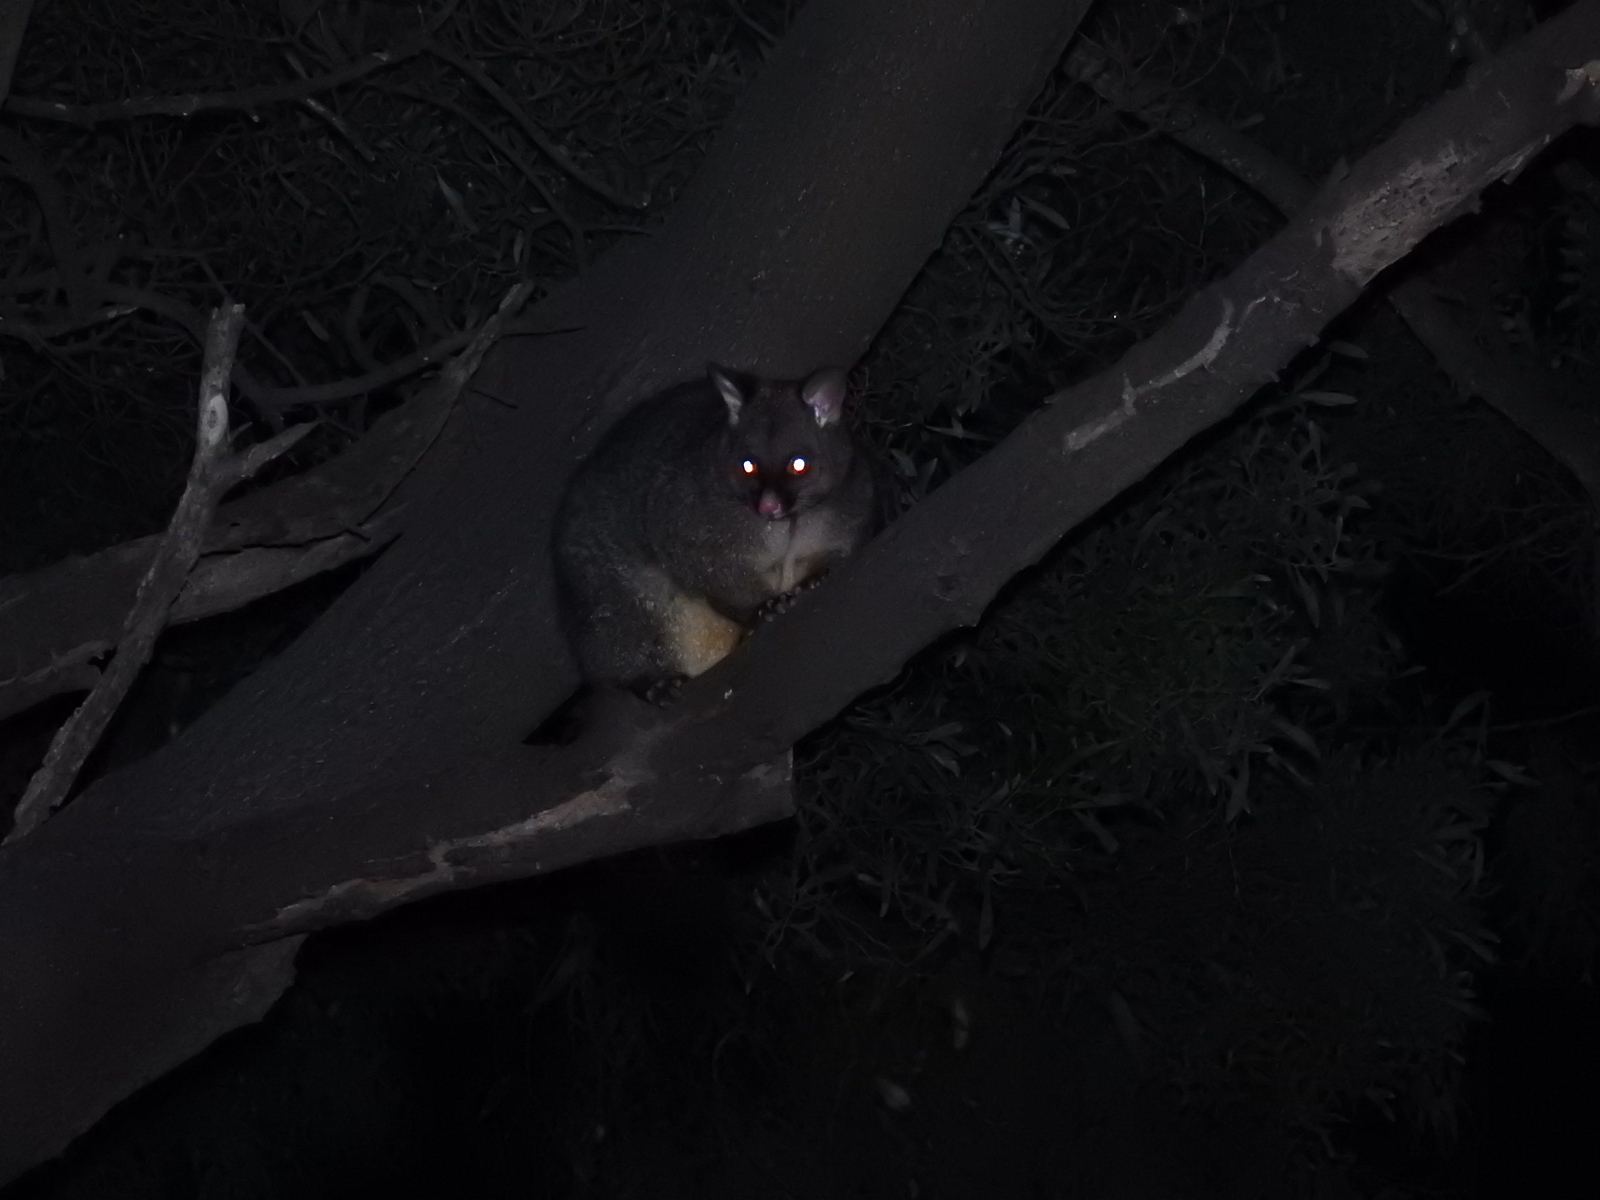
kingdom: Animalia
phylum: Chordata
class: Mammalia
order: Diprotodontia
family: Phalangeridae
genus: Trichosurus
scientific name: Trichosurus vulpecula
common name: Common brushtail
